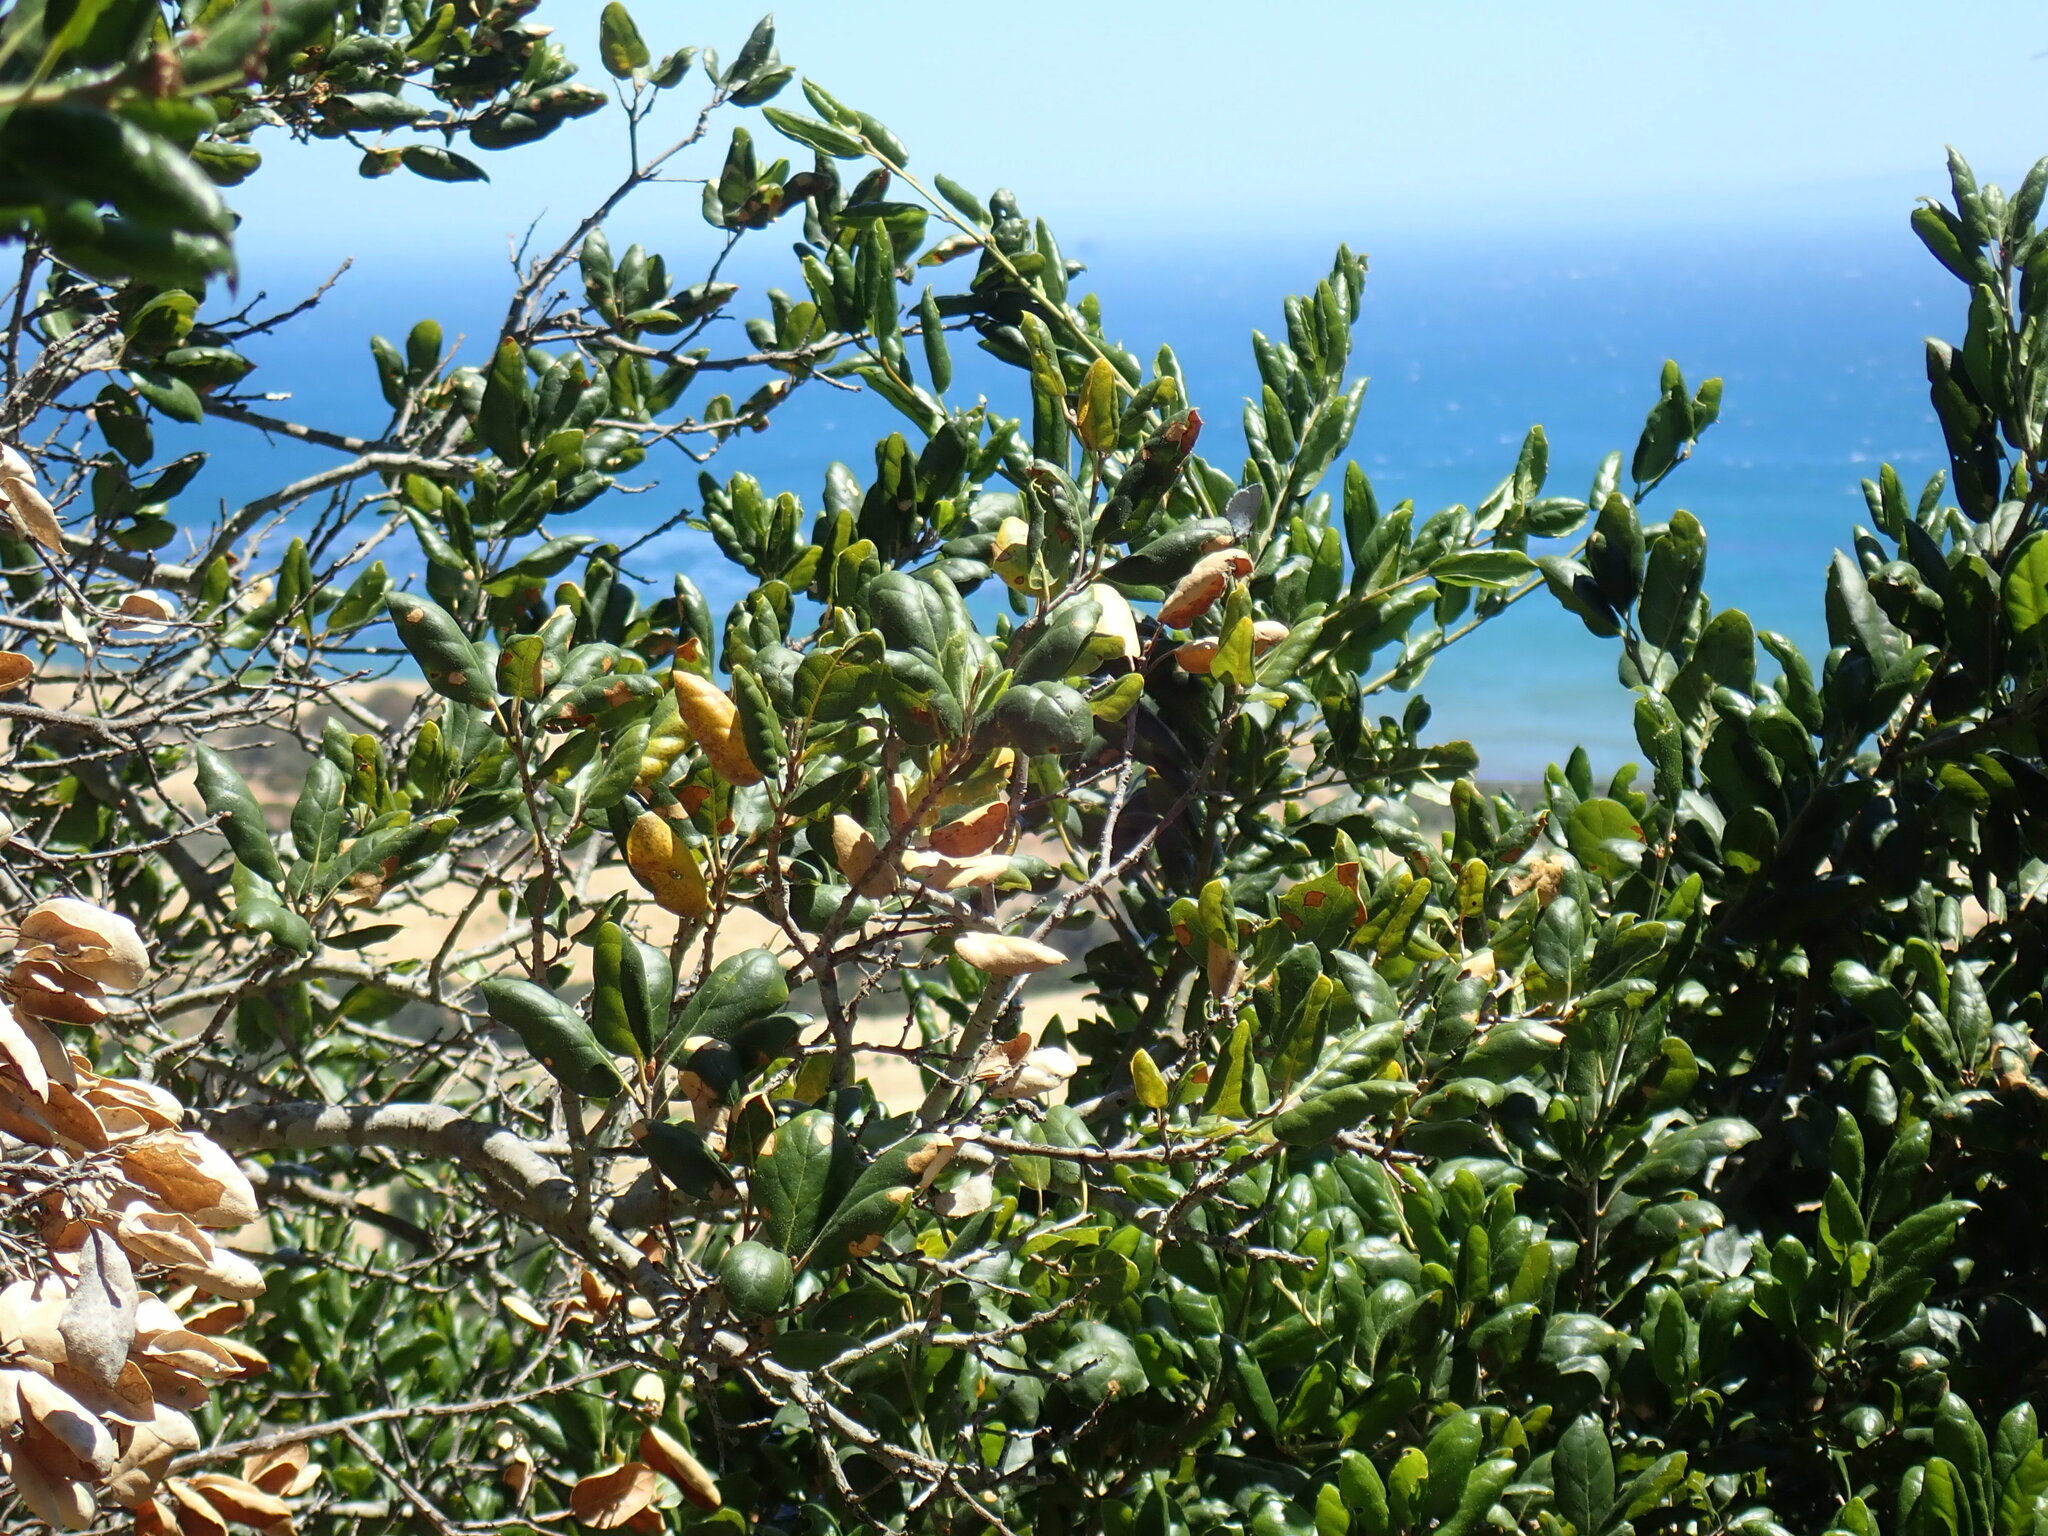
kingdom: Plantae
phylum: Tracheophyta
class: Magnoliopsida
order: Fagales
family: Fagaceae
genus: Quercus
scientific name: Quercus agrifolia
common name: California live oak
